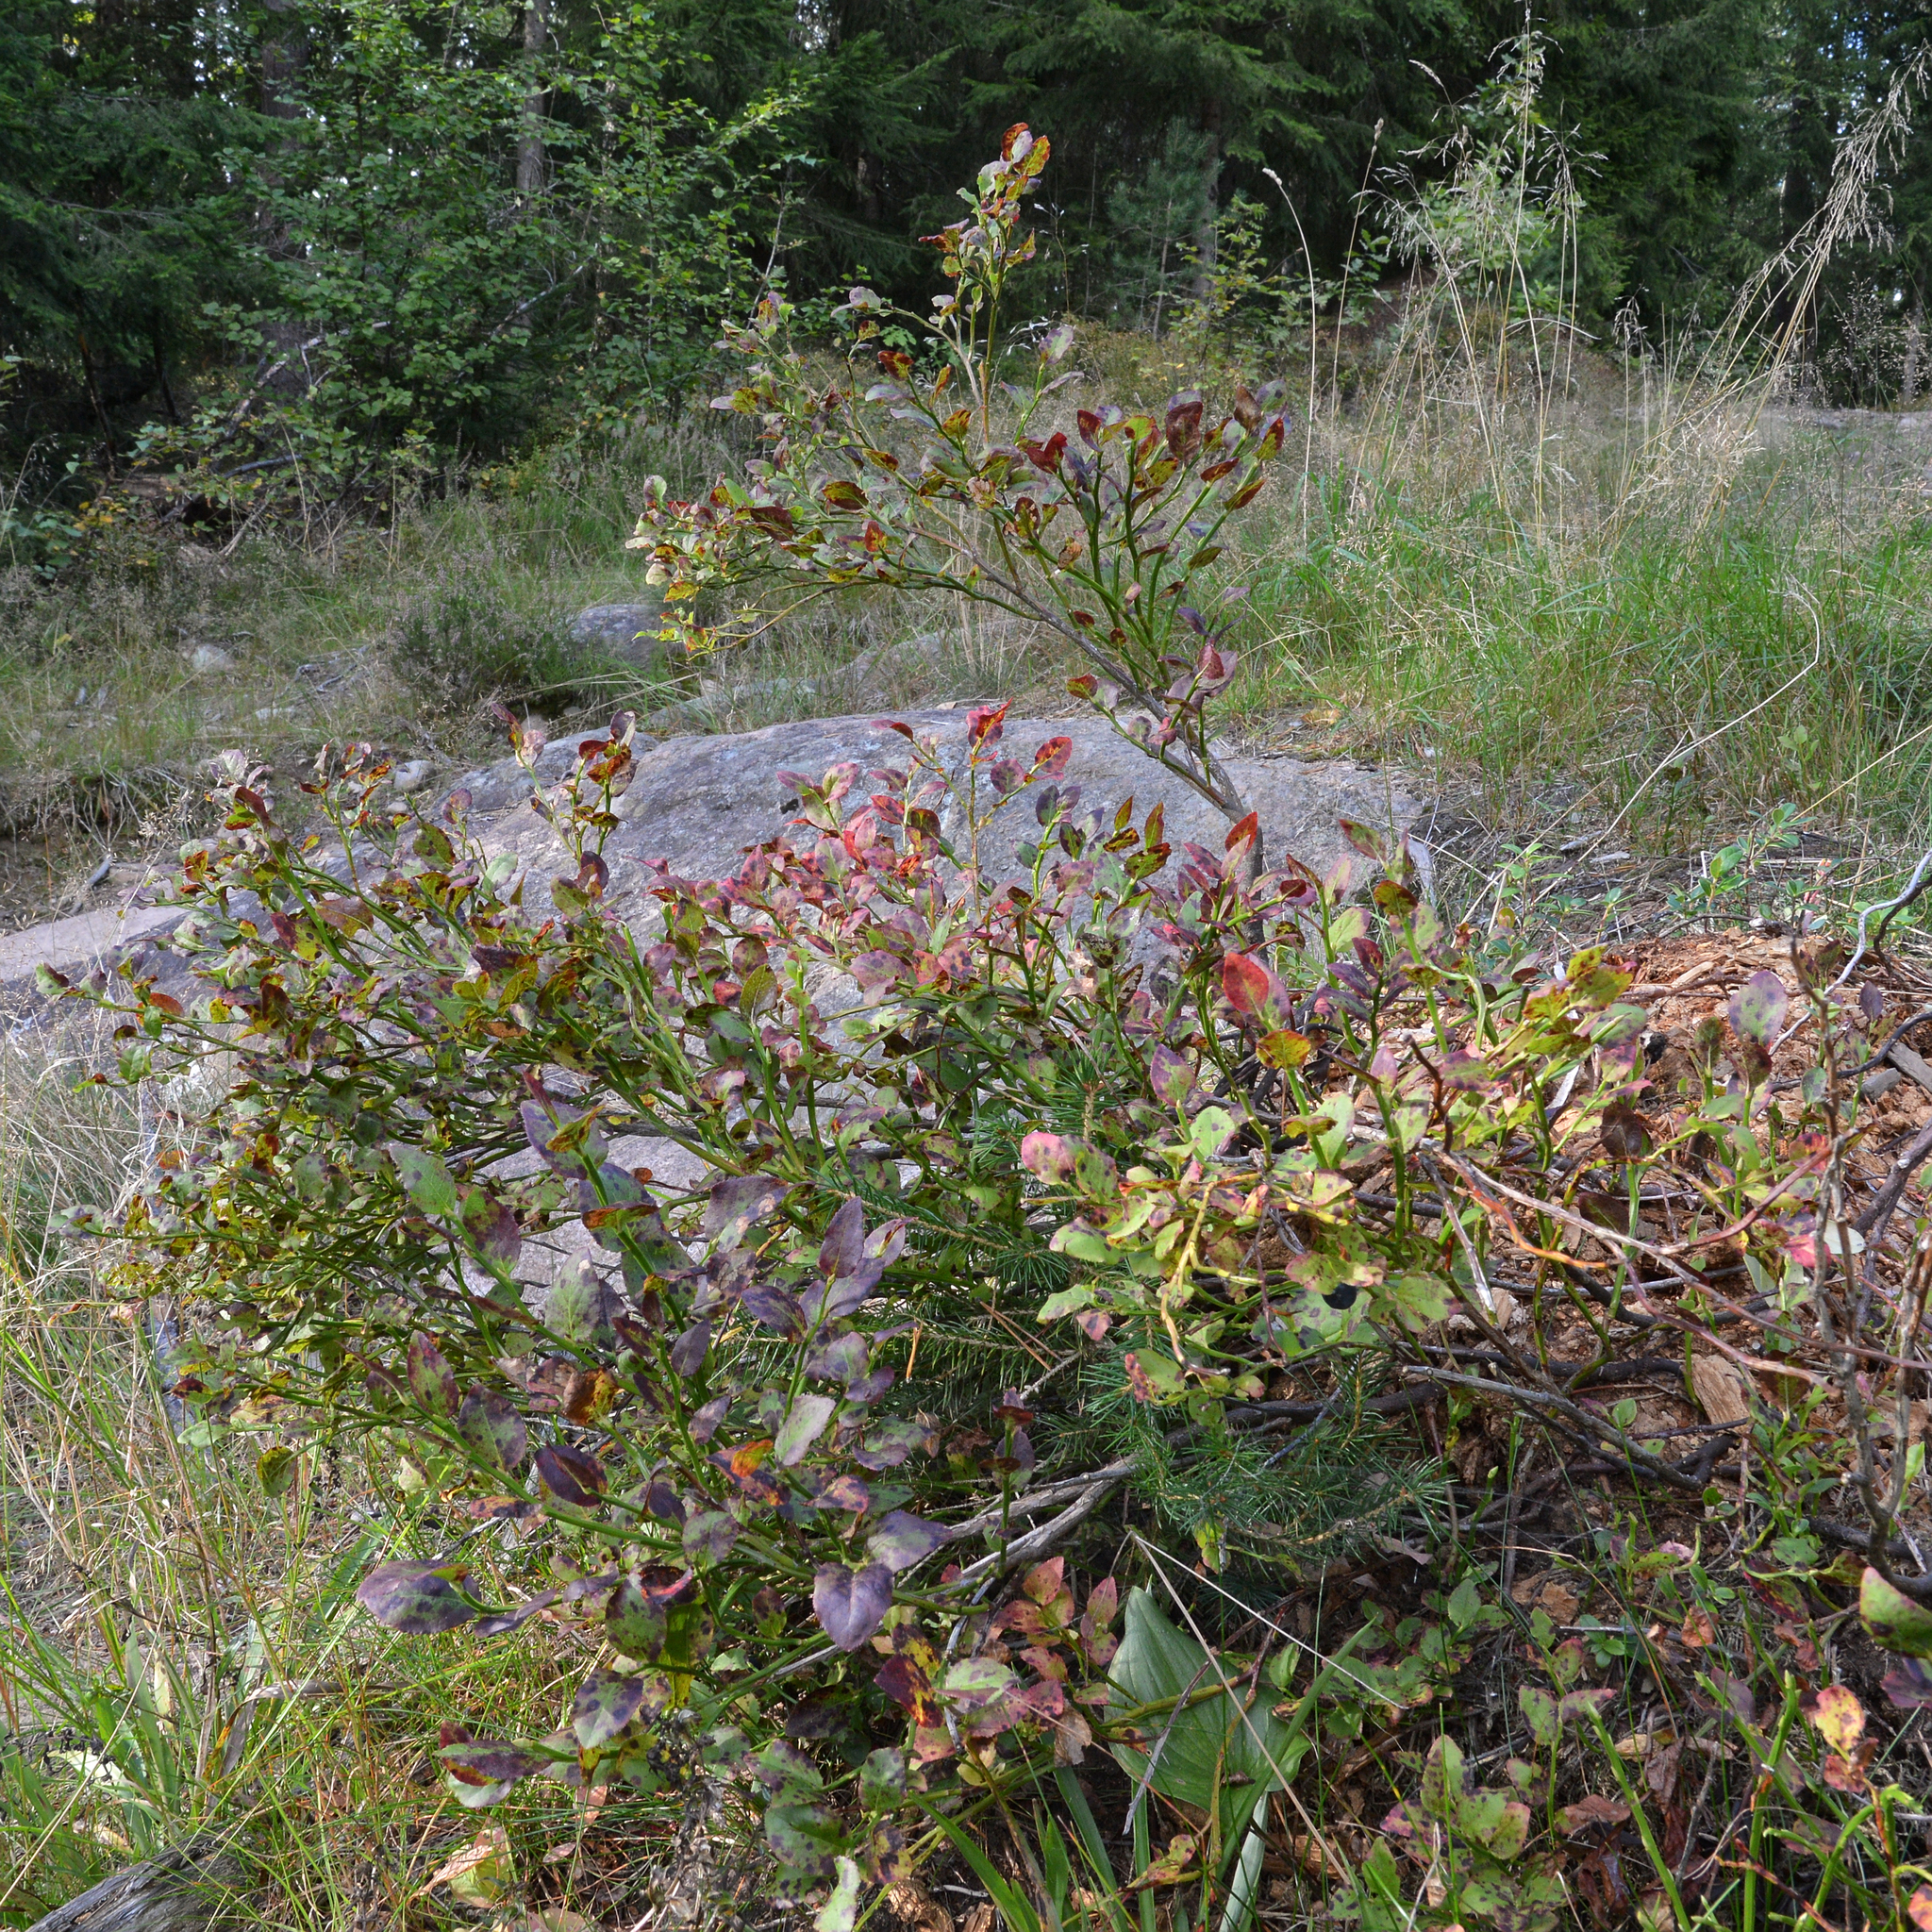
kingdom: Plantae
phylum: Tracheophyta
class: Magnoliopsida
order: Ericales
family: Ericaceae
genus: Vaccinium
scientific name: Vaccinium myrtillus
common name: Bilberry
